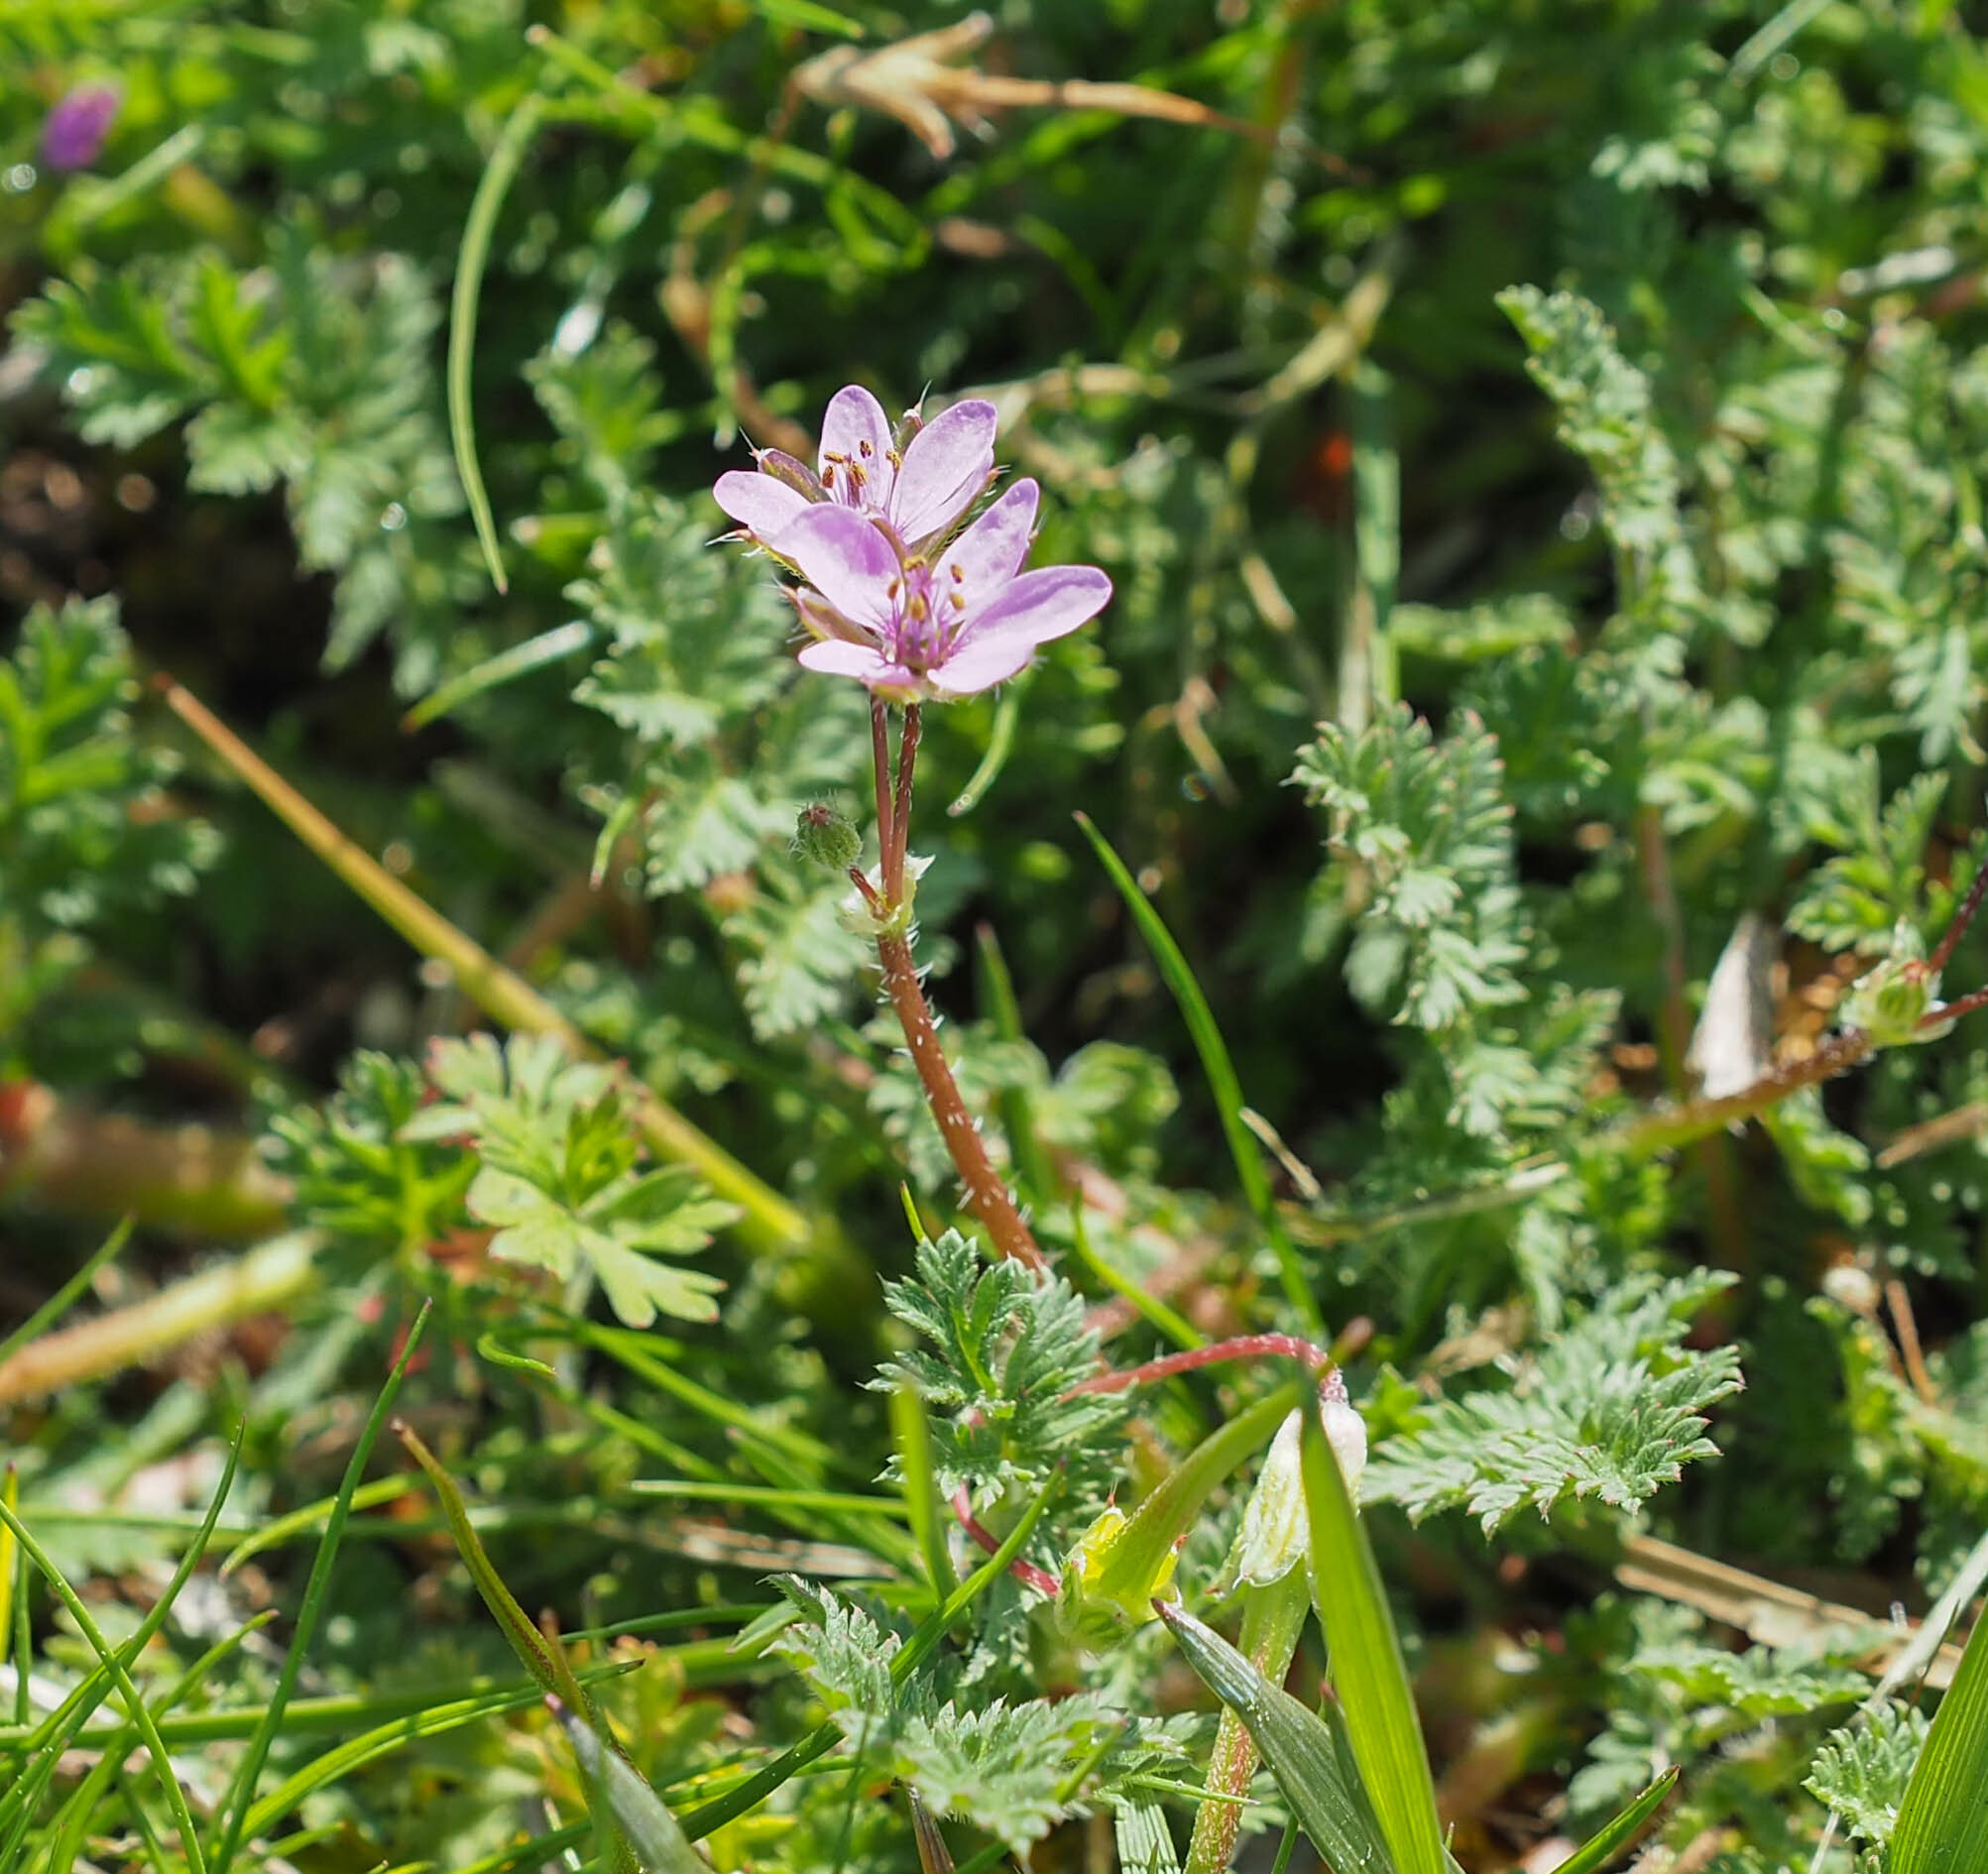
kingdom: Plantae
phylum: Tracheophyta
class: Magnoliopsida
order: Geraniales
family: Geraniaceae
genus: Erodium
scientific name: Erodium cicutarium
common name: Common stork's-bill
